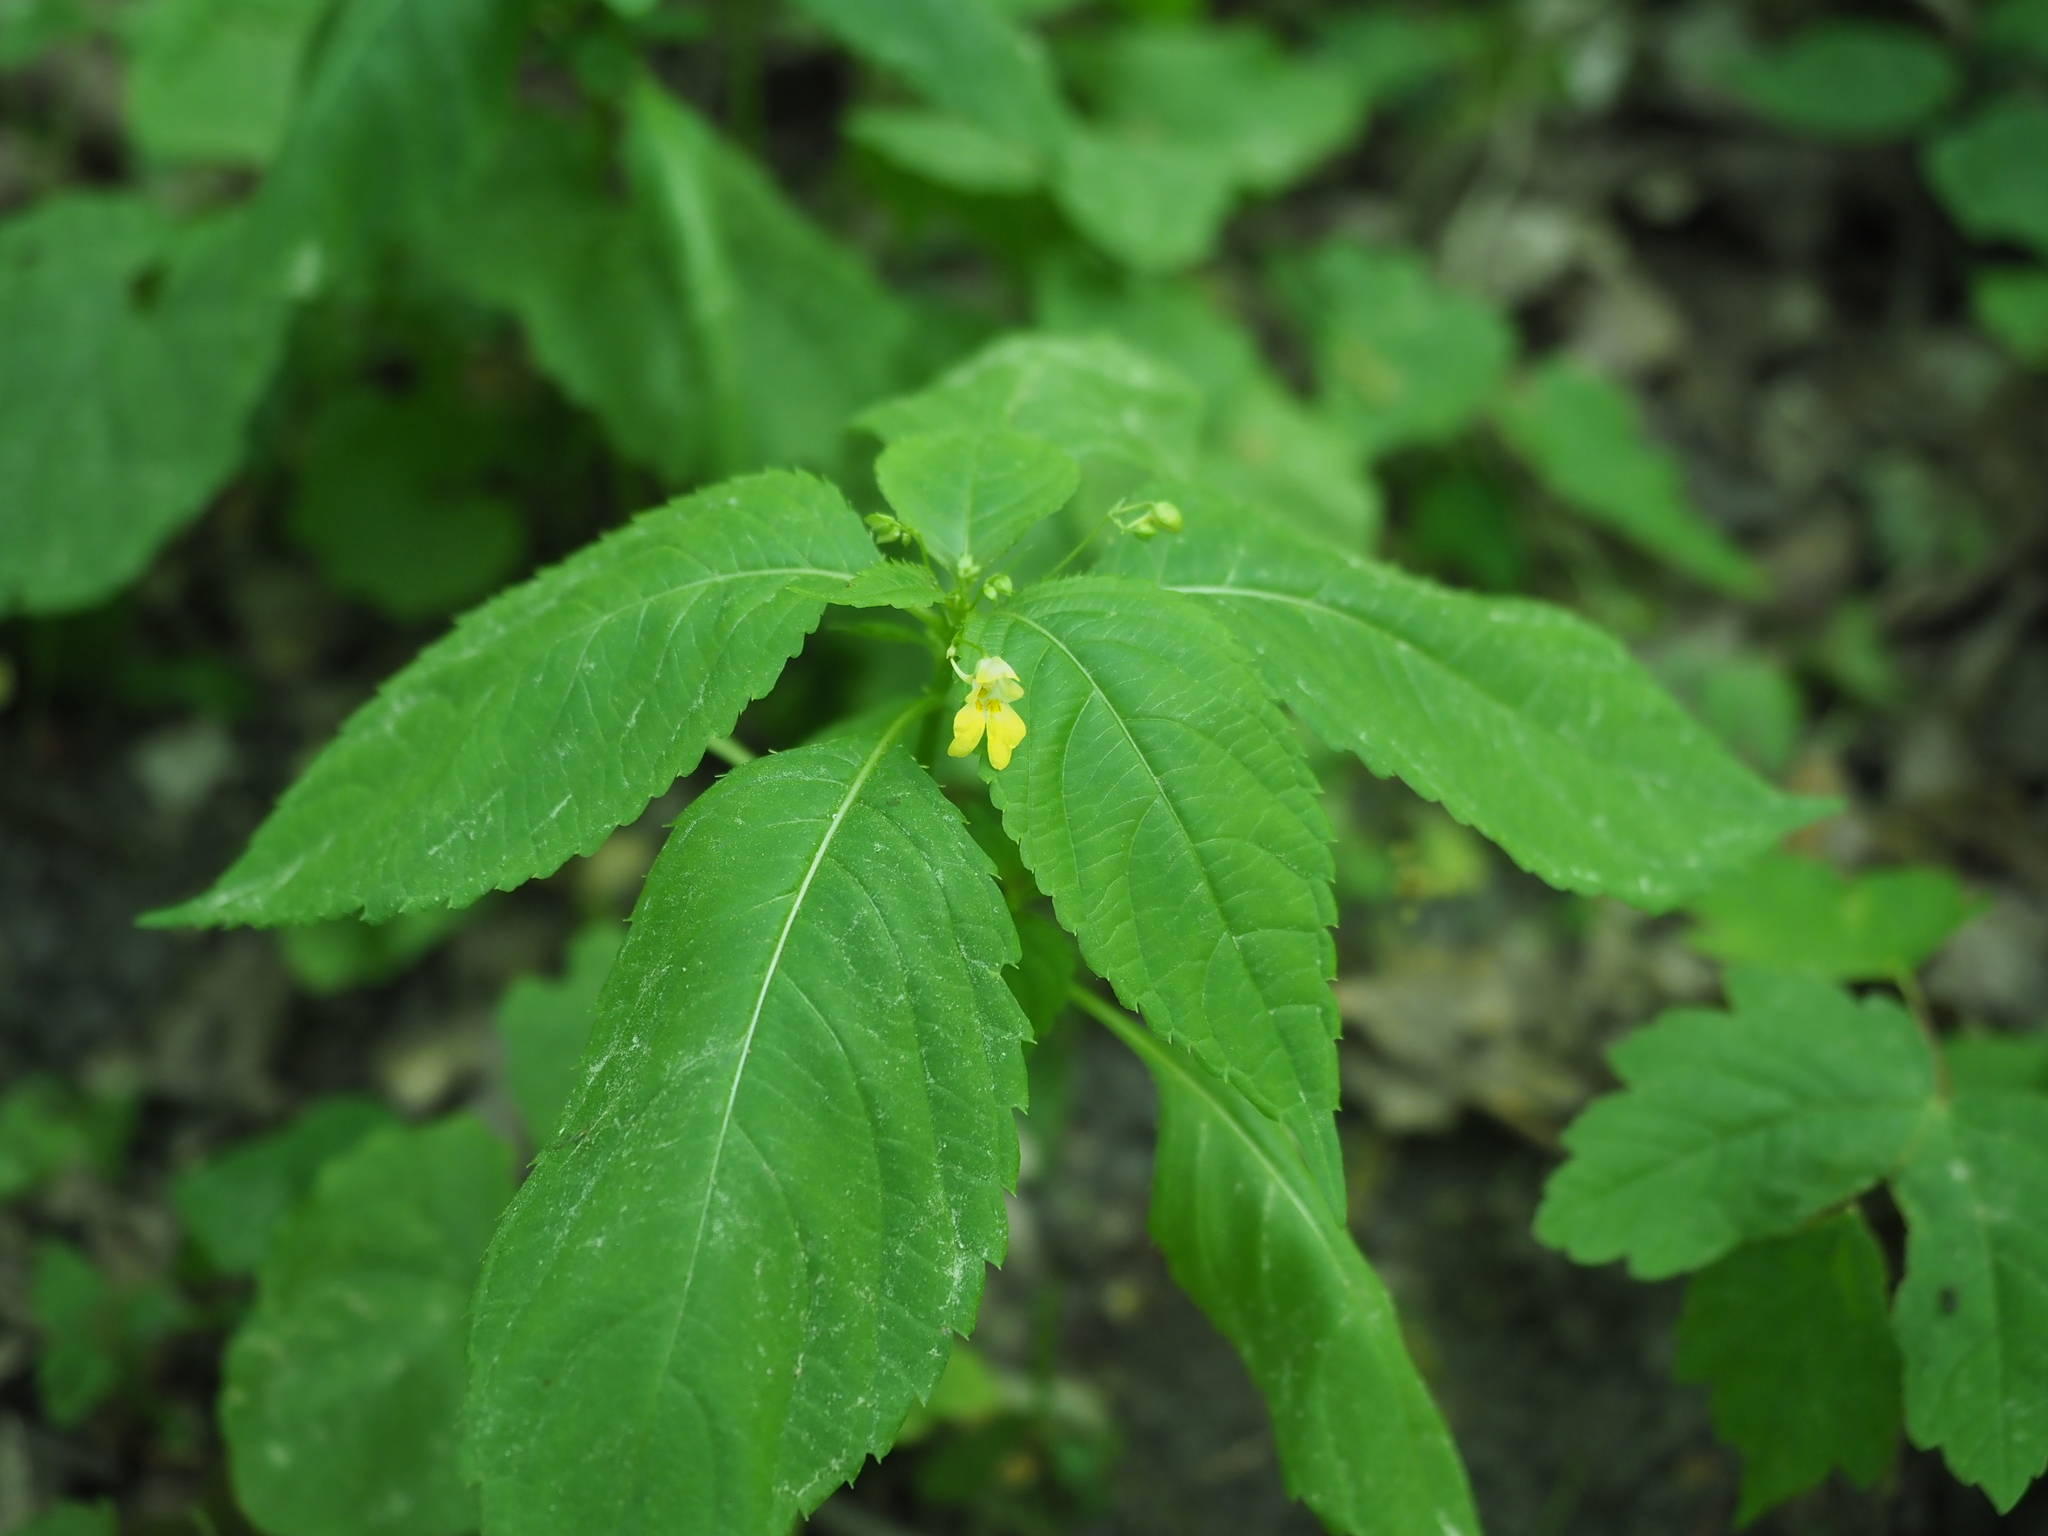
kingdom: Plantae
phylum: Tracheophyta
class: Magnoliopsida
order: Ericales
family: Balsaminaceae
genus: Impatiens
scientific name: Impatiens parviflora
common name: Small balsam
